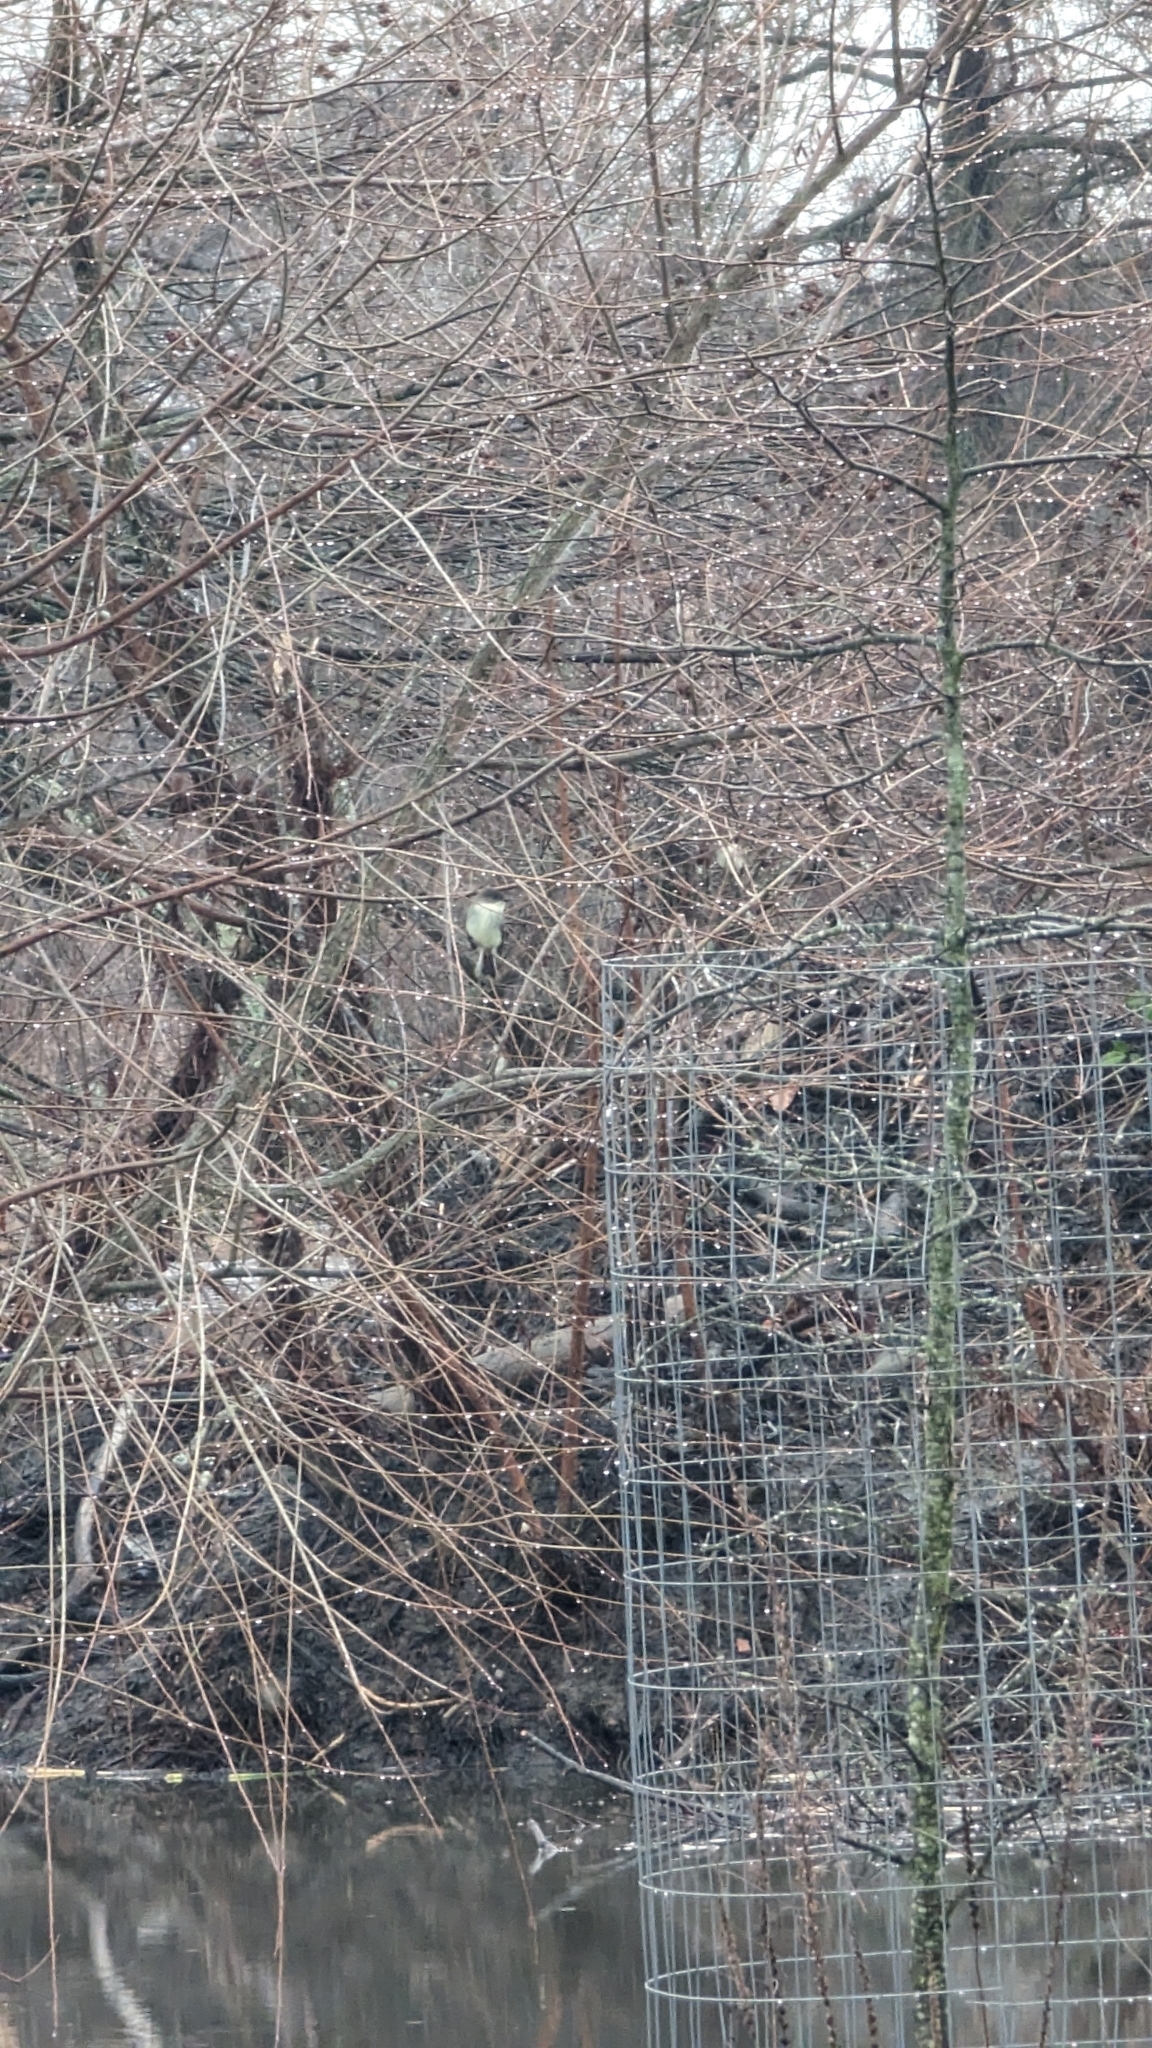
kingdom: Animalia
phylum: Chordata
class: Aves
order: Passeriformes
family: Tyrannidae
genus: Sayornis
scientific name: Sayornis phoebe
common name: Eastern phoebe
